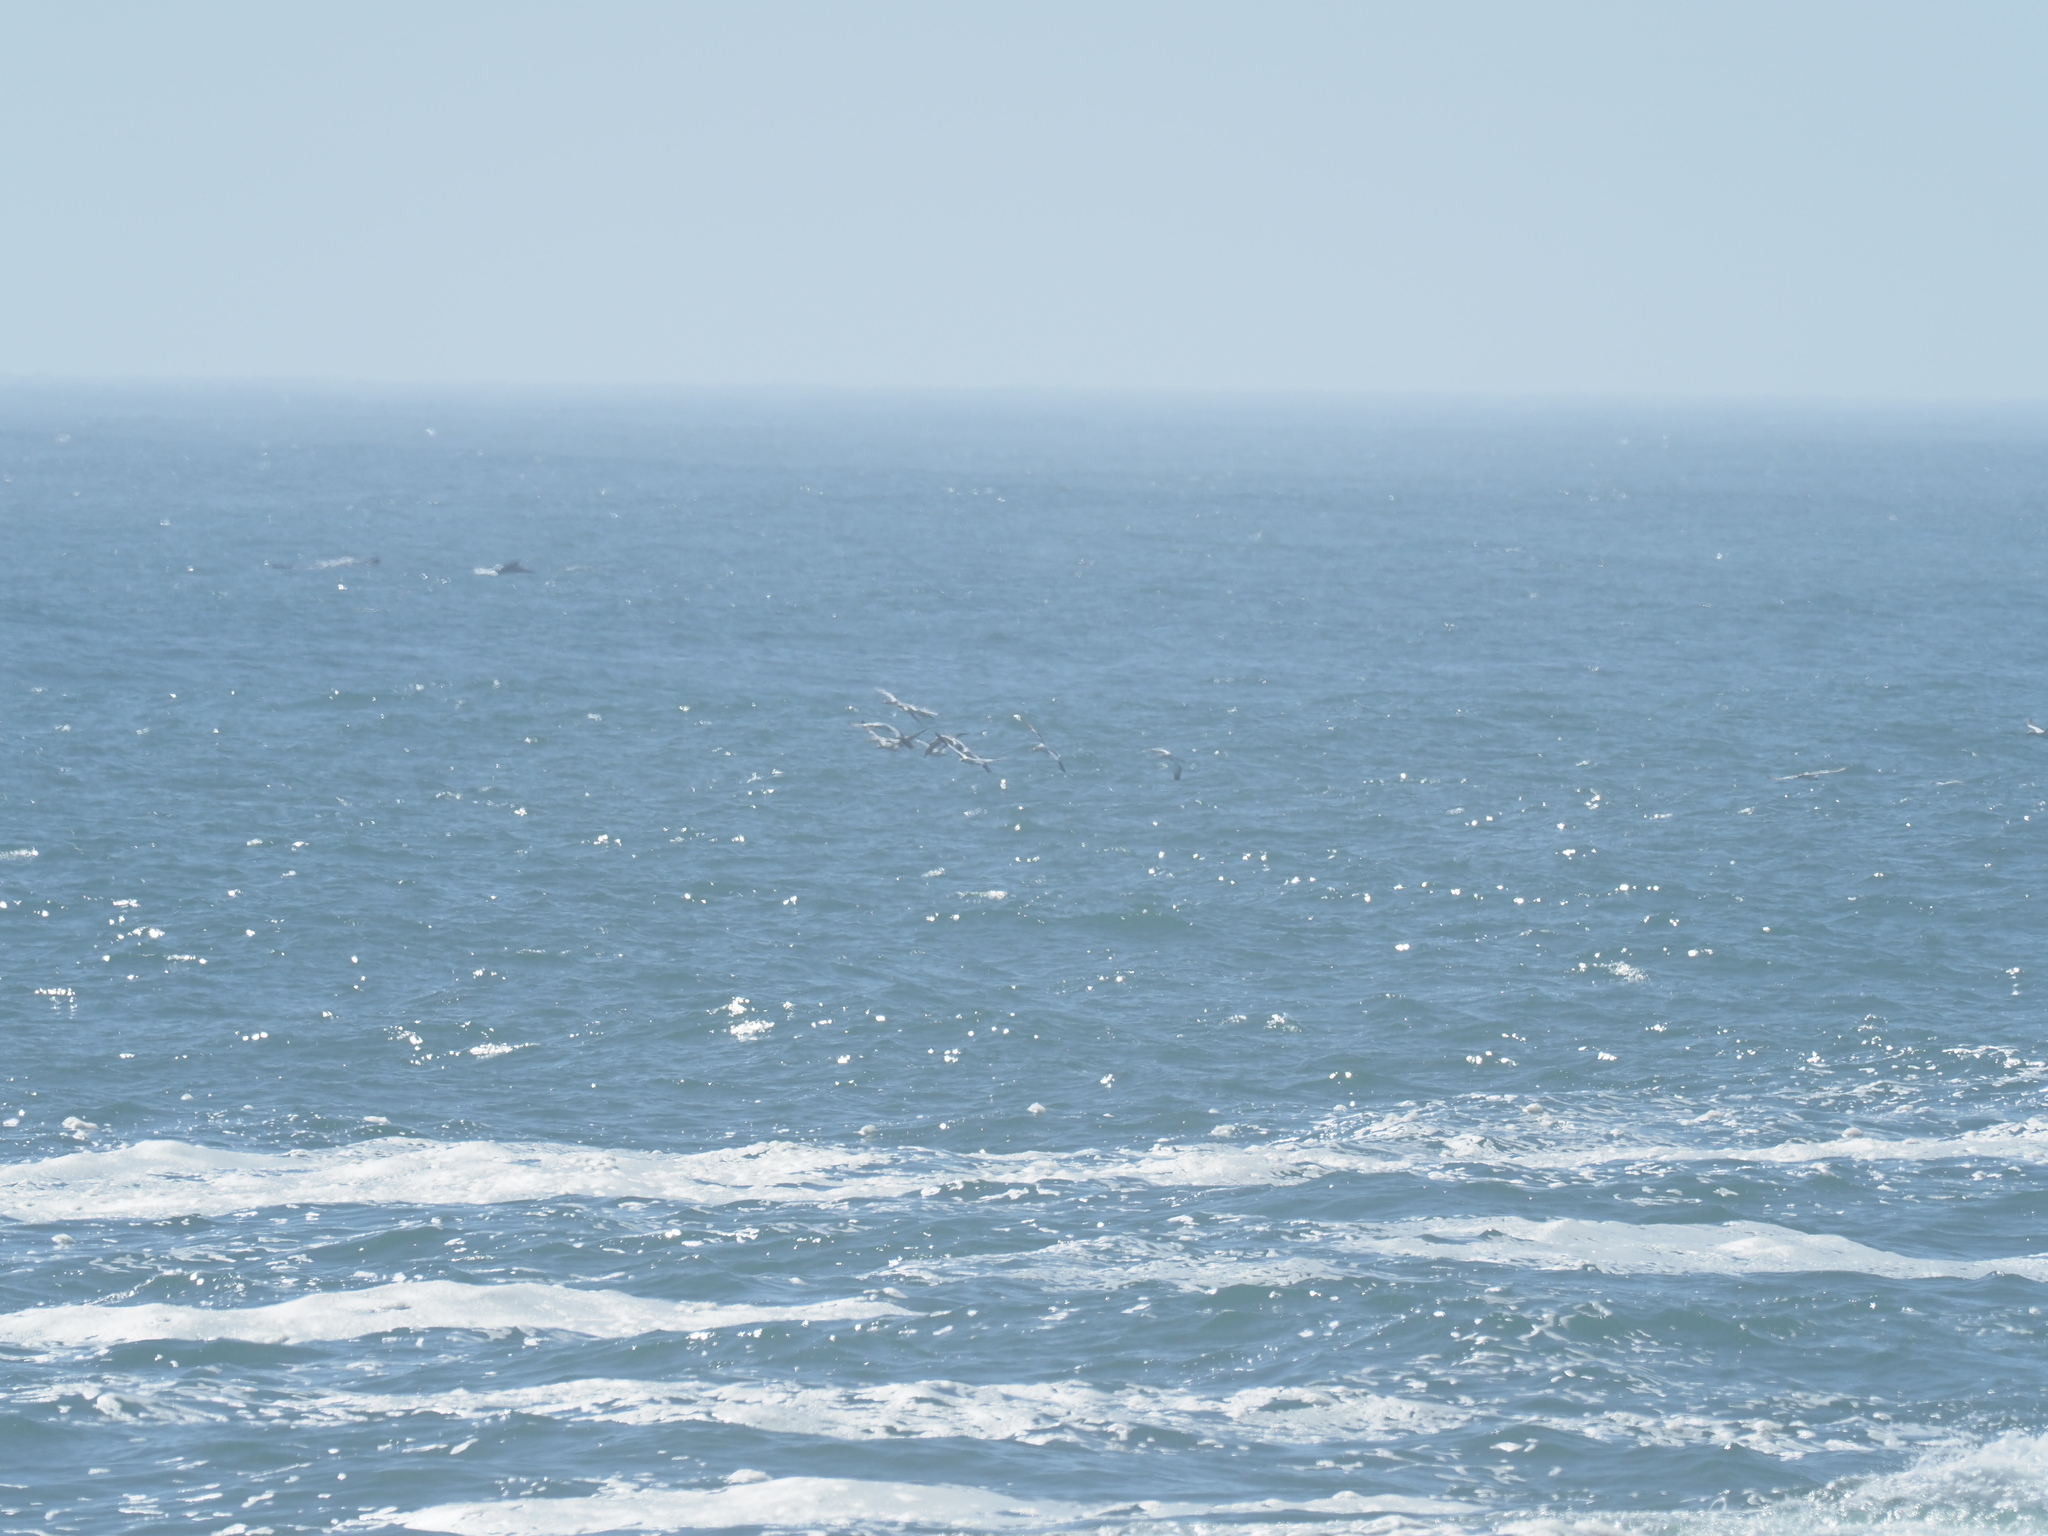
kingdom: Animalia
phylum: Chordata
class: Aves
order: Suliformes
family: Sulidae
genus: Morus
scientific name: Morus capensis
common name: Cape gannet
